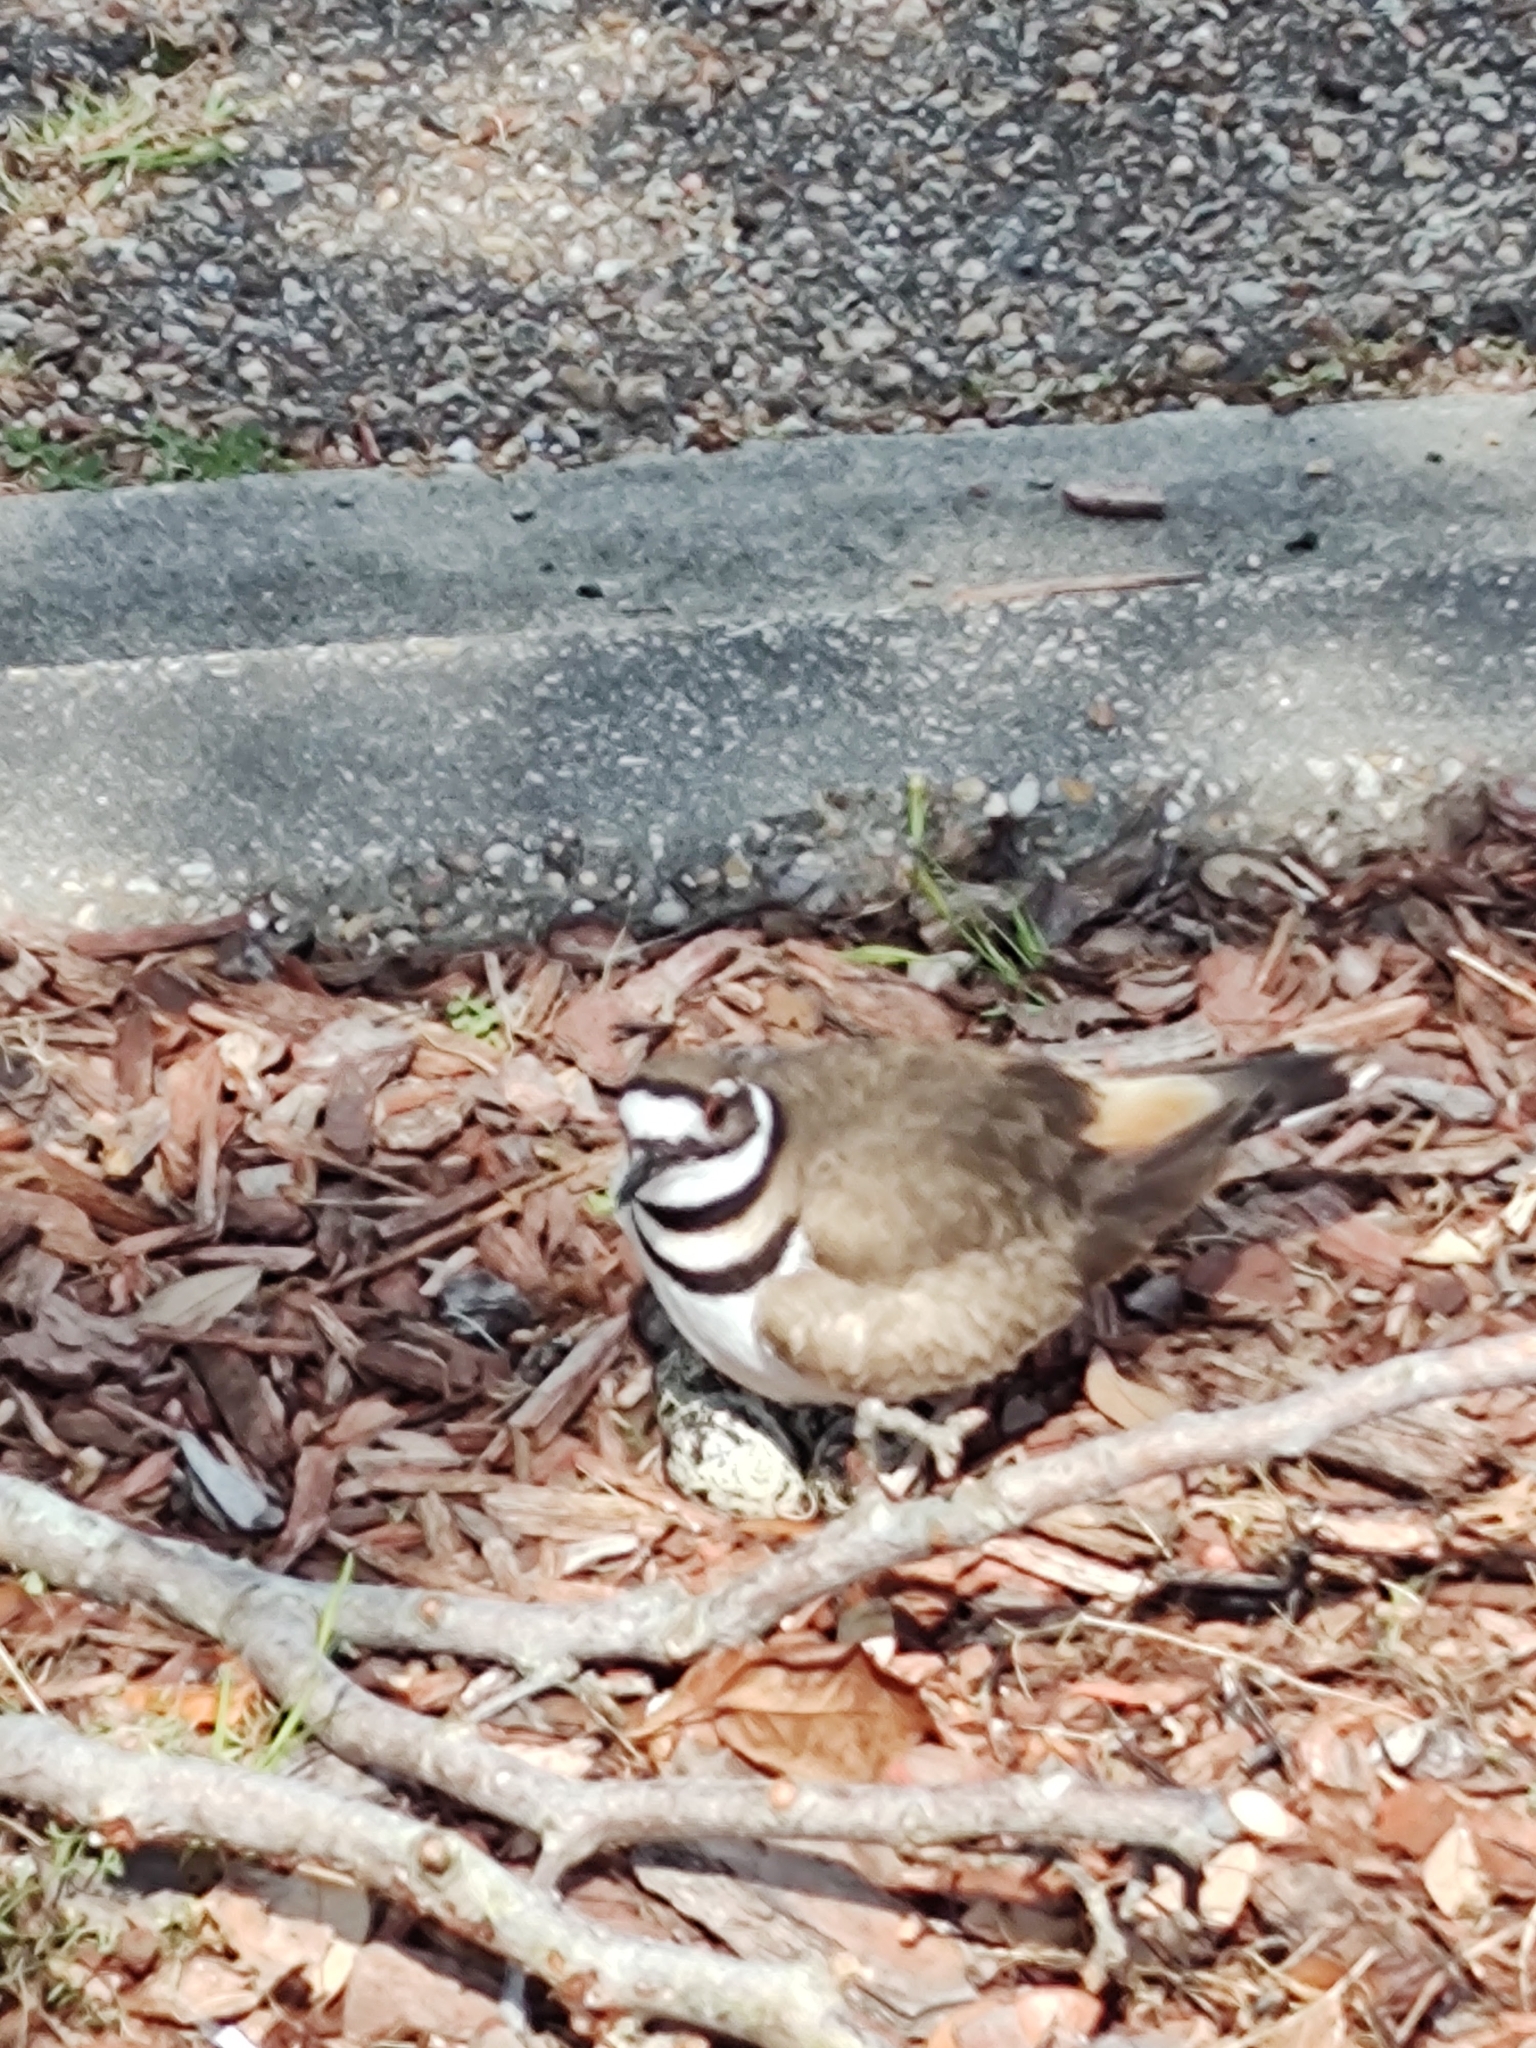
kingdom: Animalia
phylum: Chordata
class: Aves
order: Charadriiformes
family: Charadriidae
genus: Charadrius
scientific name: Charadrius vociferus
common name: Killdeer
